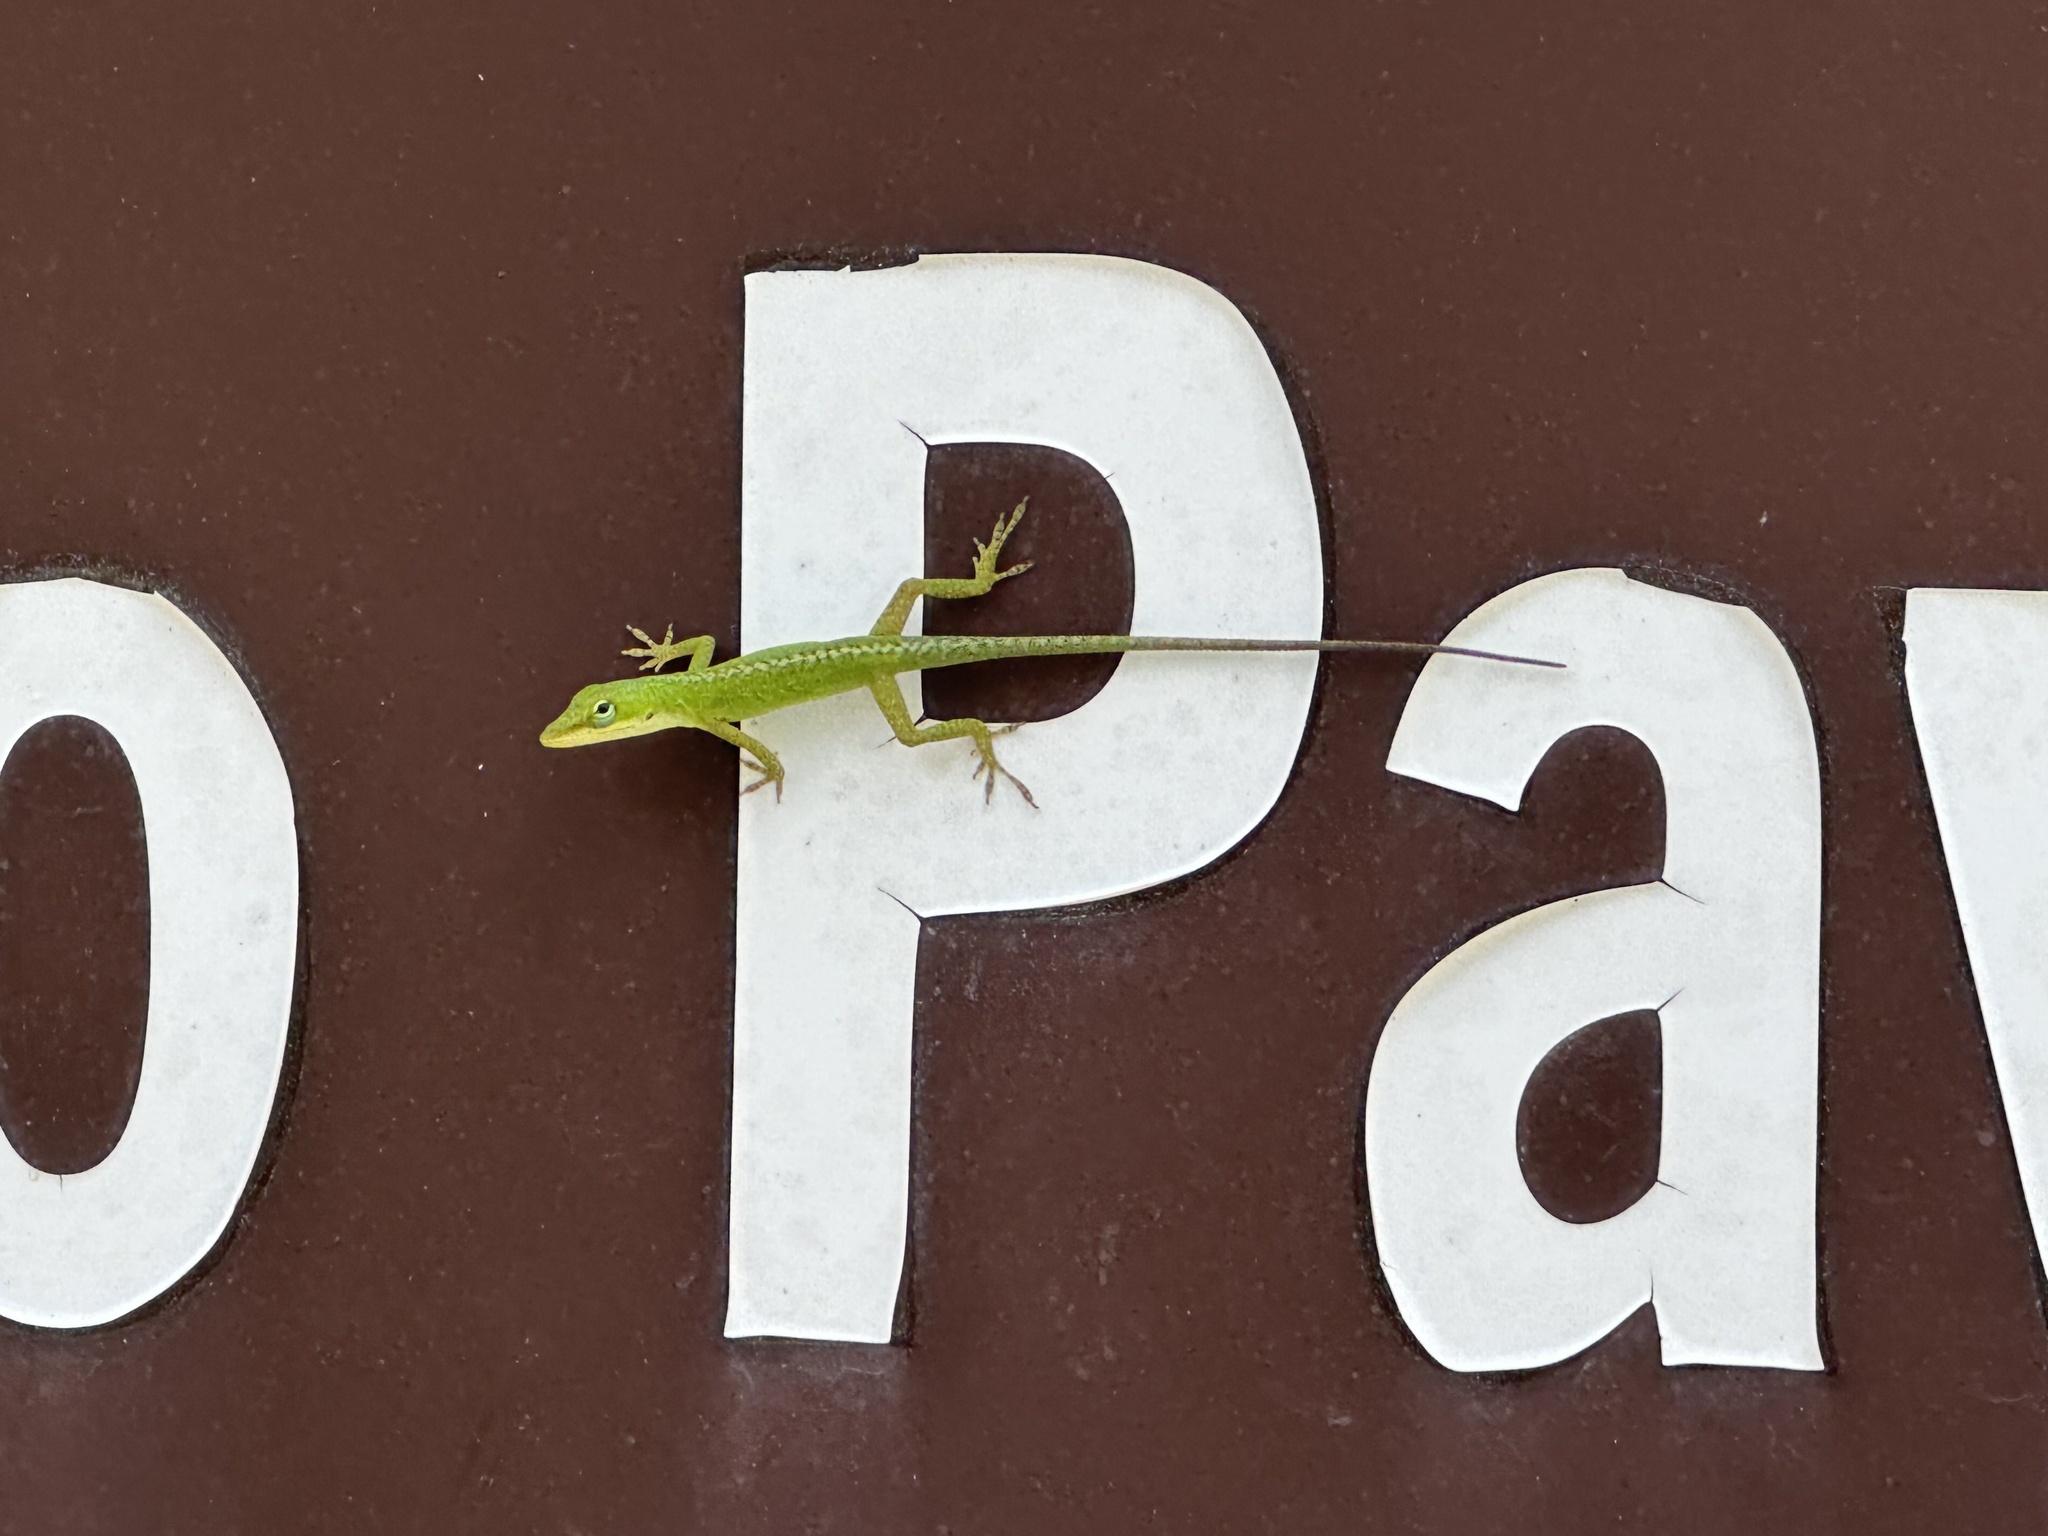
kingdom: Animalia
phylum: Chordata
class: Squamata
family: Dactyloidae
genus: Anolis
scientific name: Anolis carolinensis
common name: Green anole
